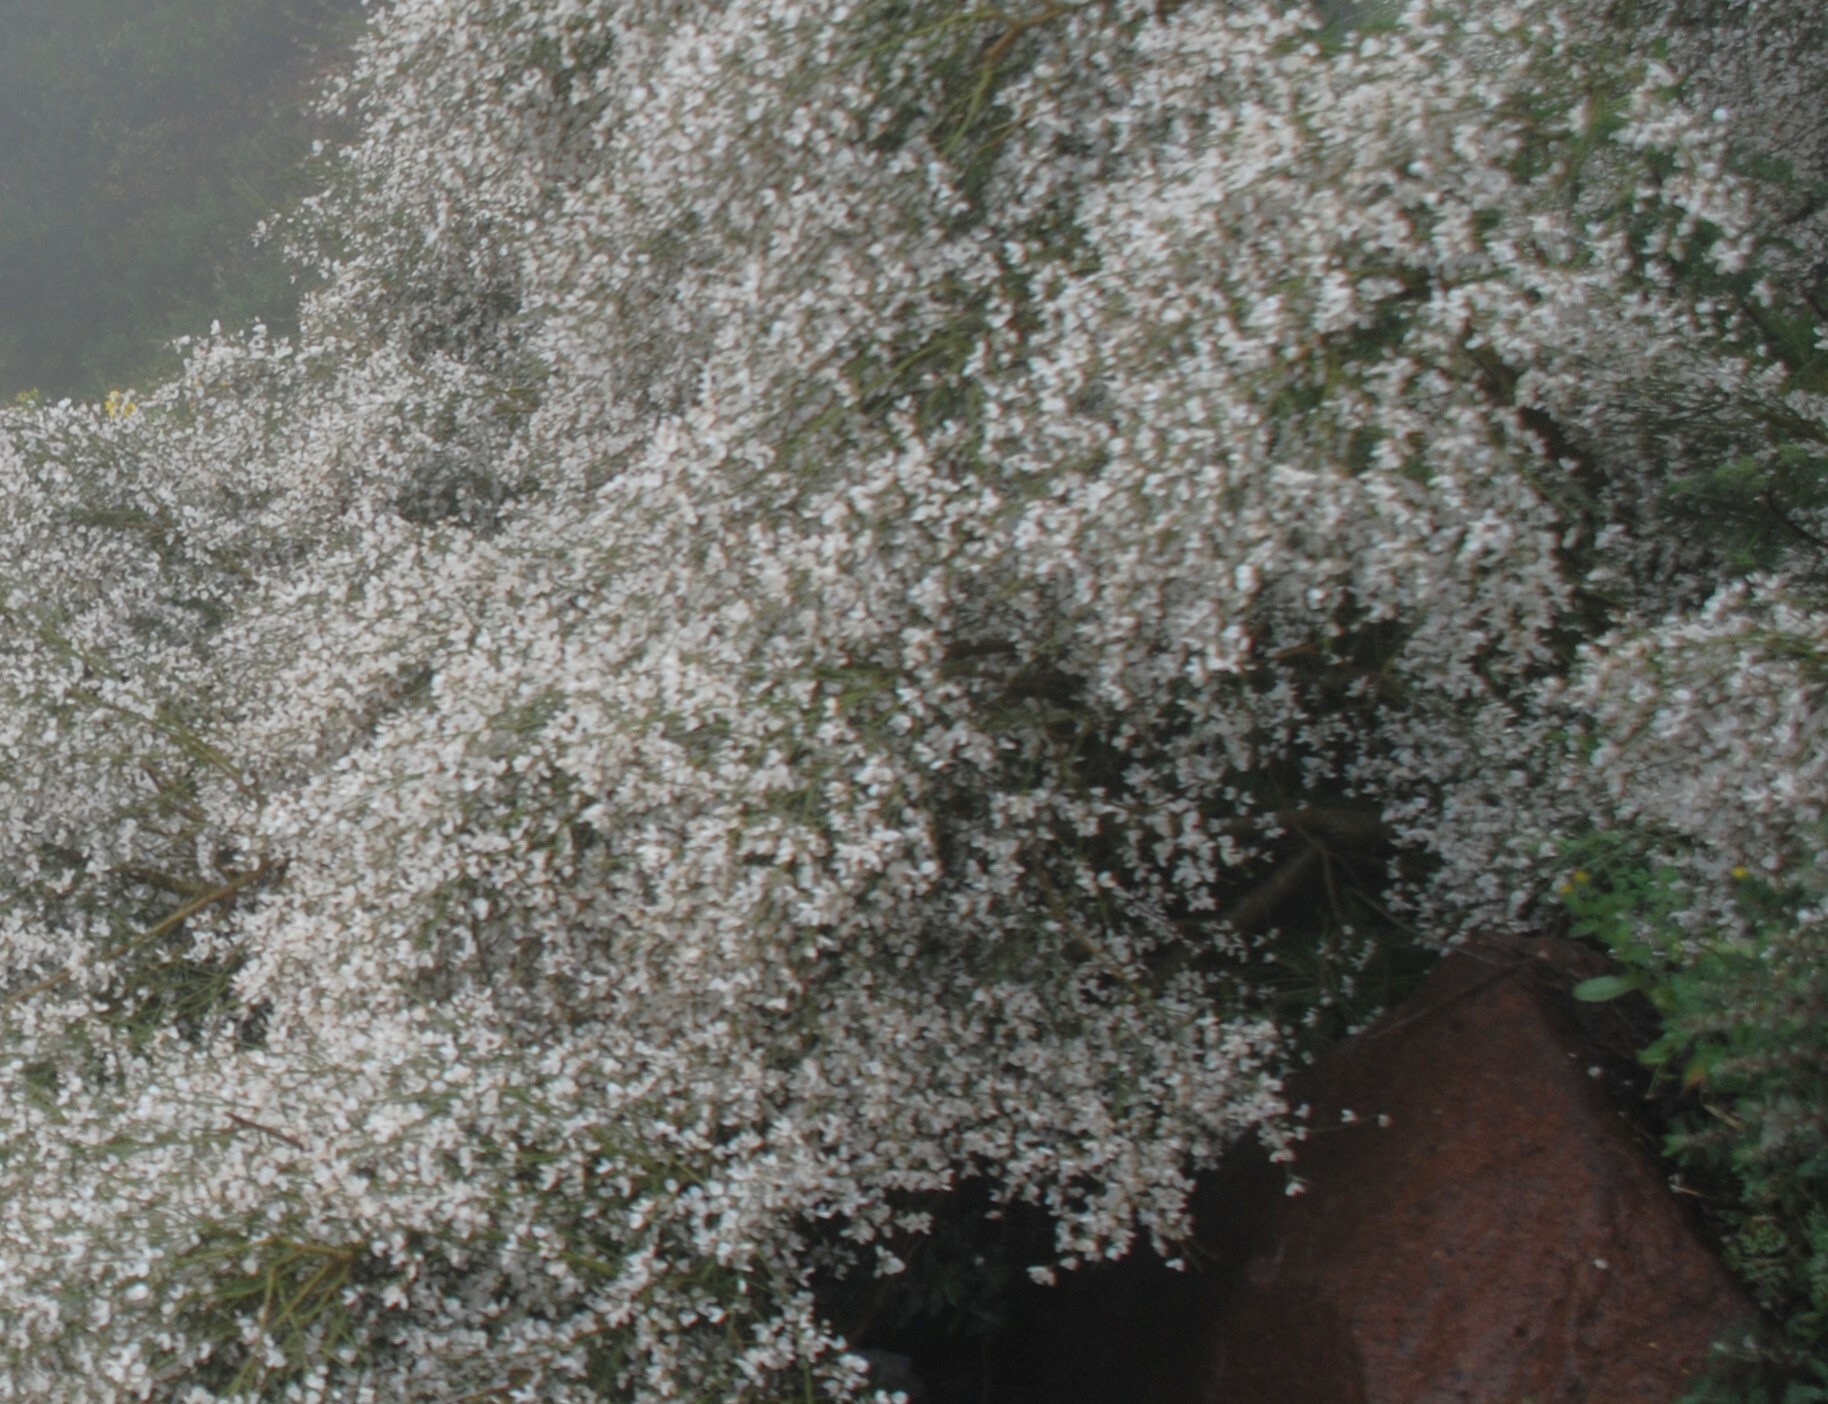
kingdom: Plantae
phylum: Tracheophyta
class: Magnoliopsida
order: Fabales
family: Fabaceae
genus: Retama
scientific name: Retama rhodorhizoides
